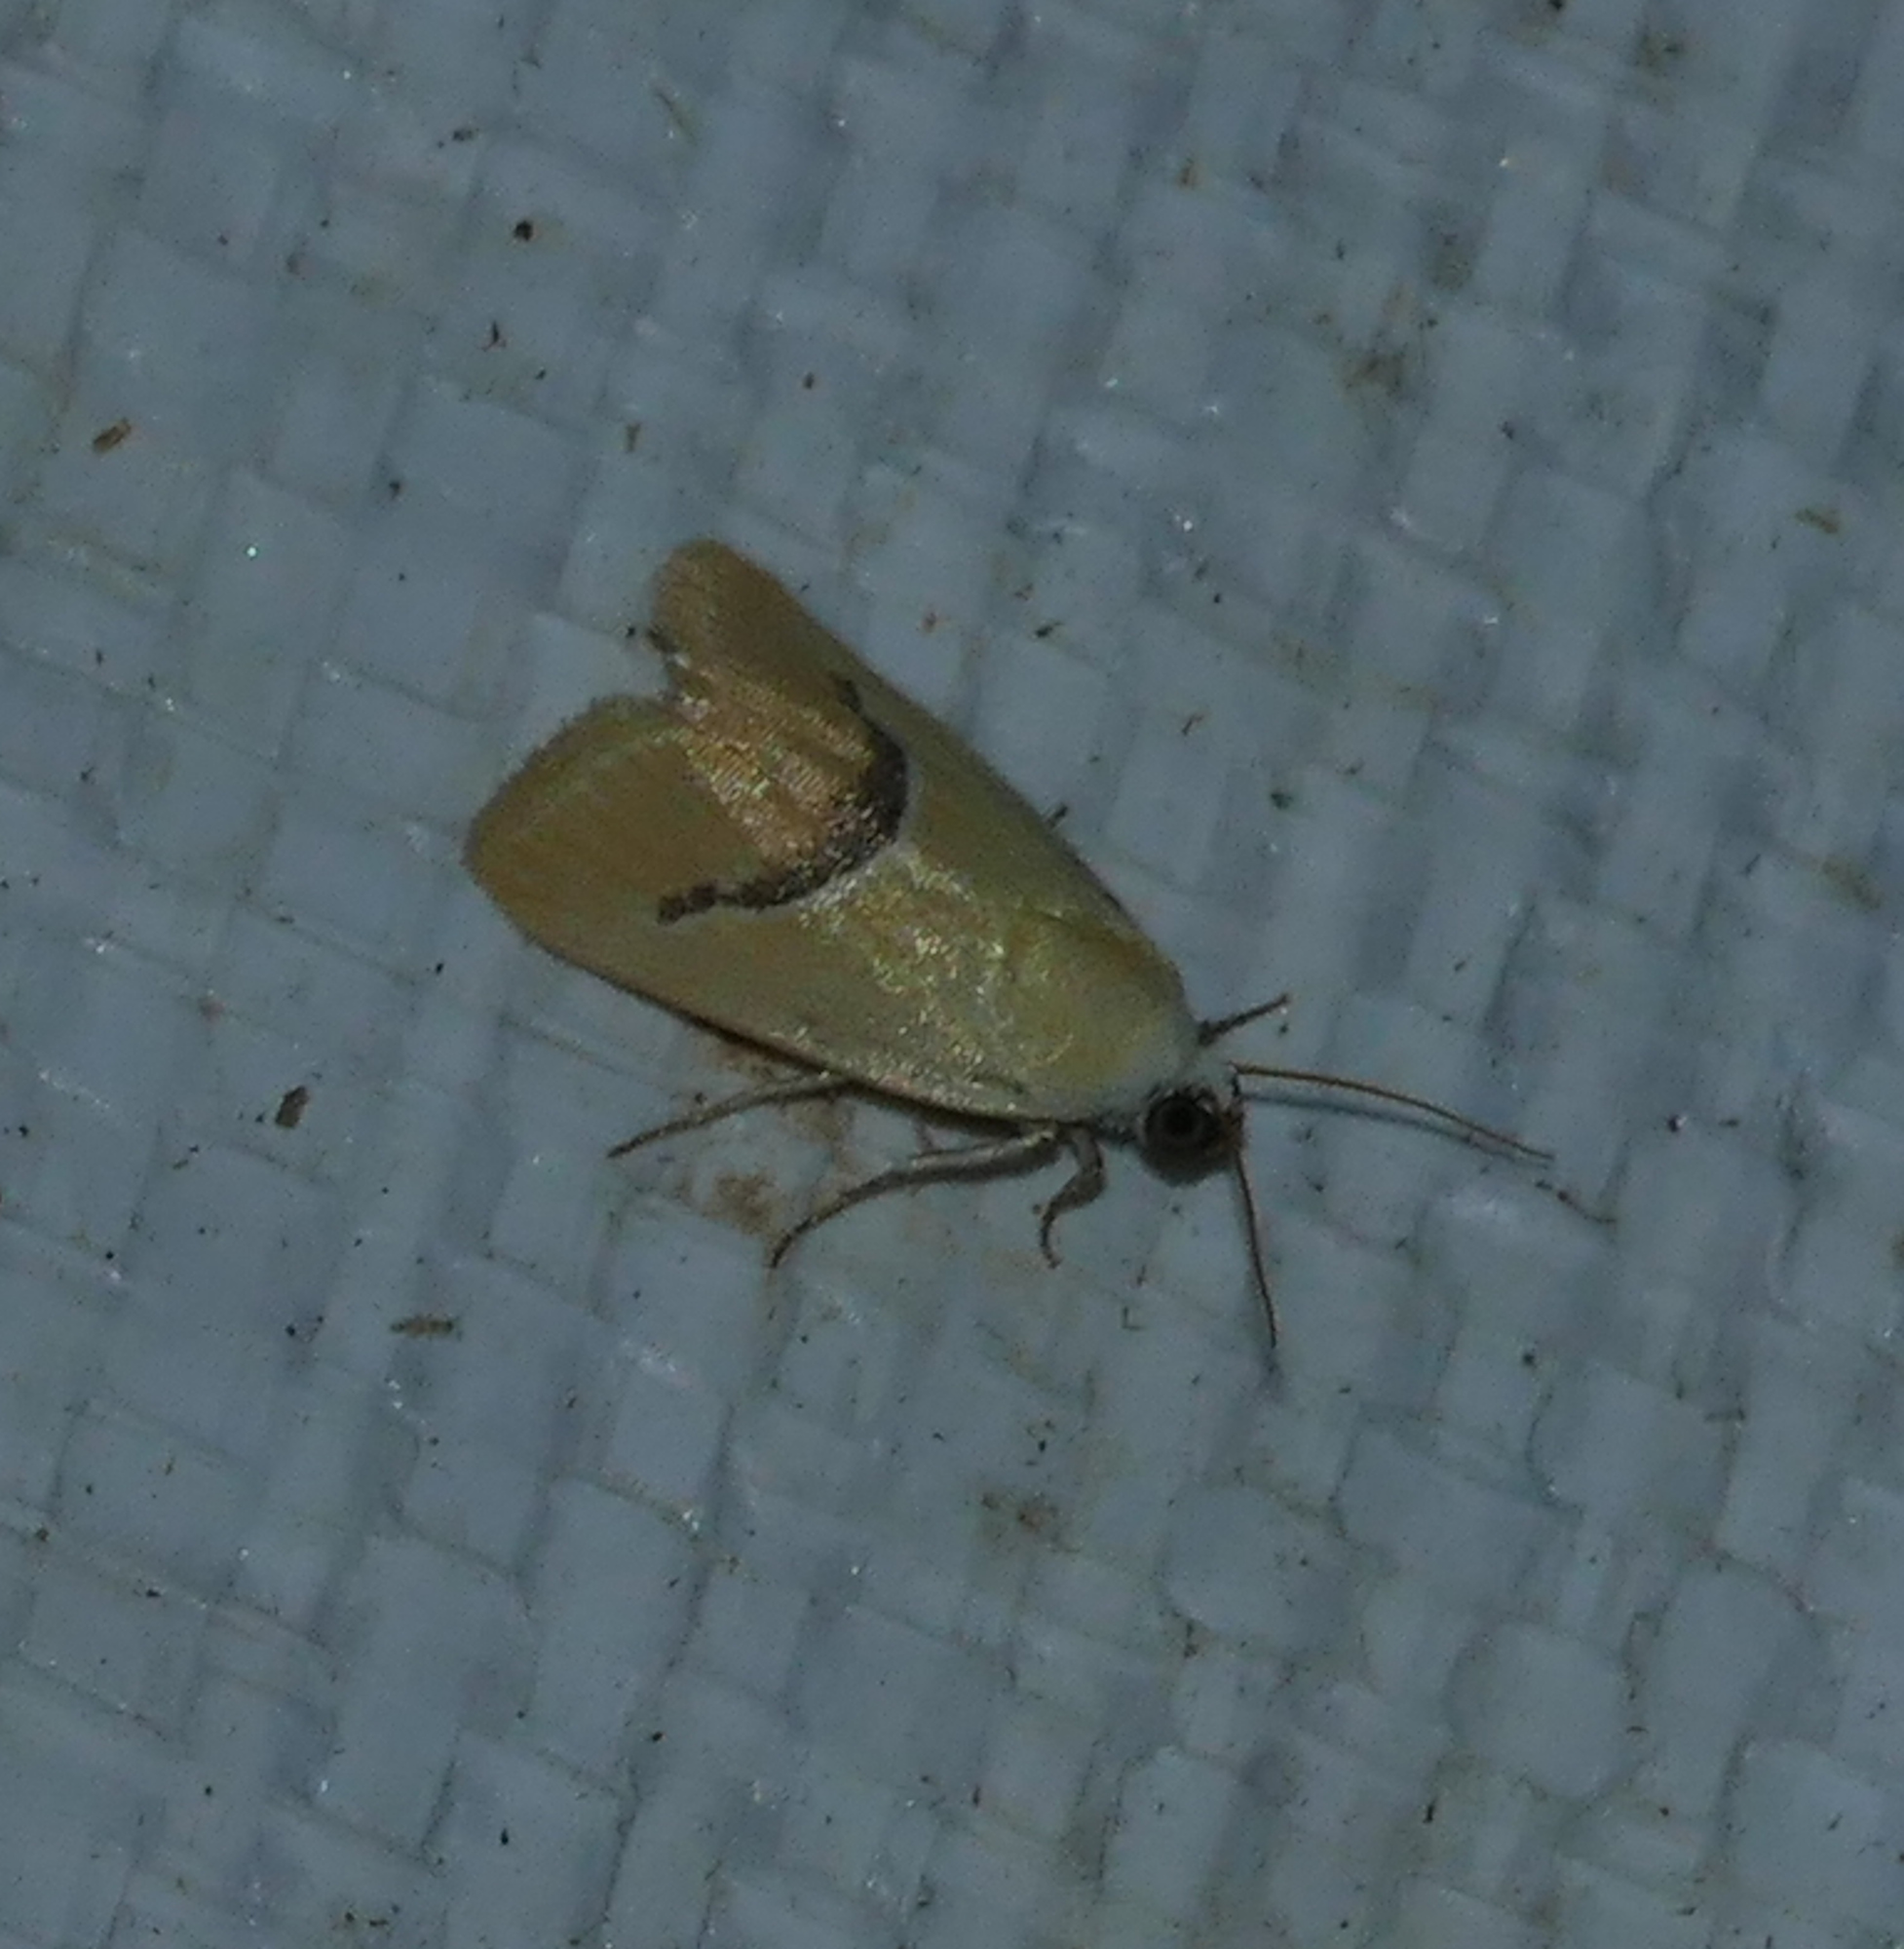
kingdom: Animalia
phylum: Arthropoda
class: Insecta
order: Lepidoptera
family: Noctuidae
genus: Ponometia
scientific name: Ponometia venustula
